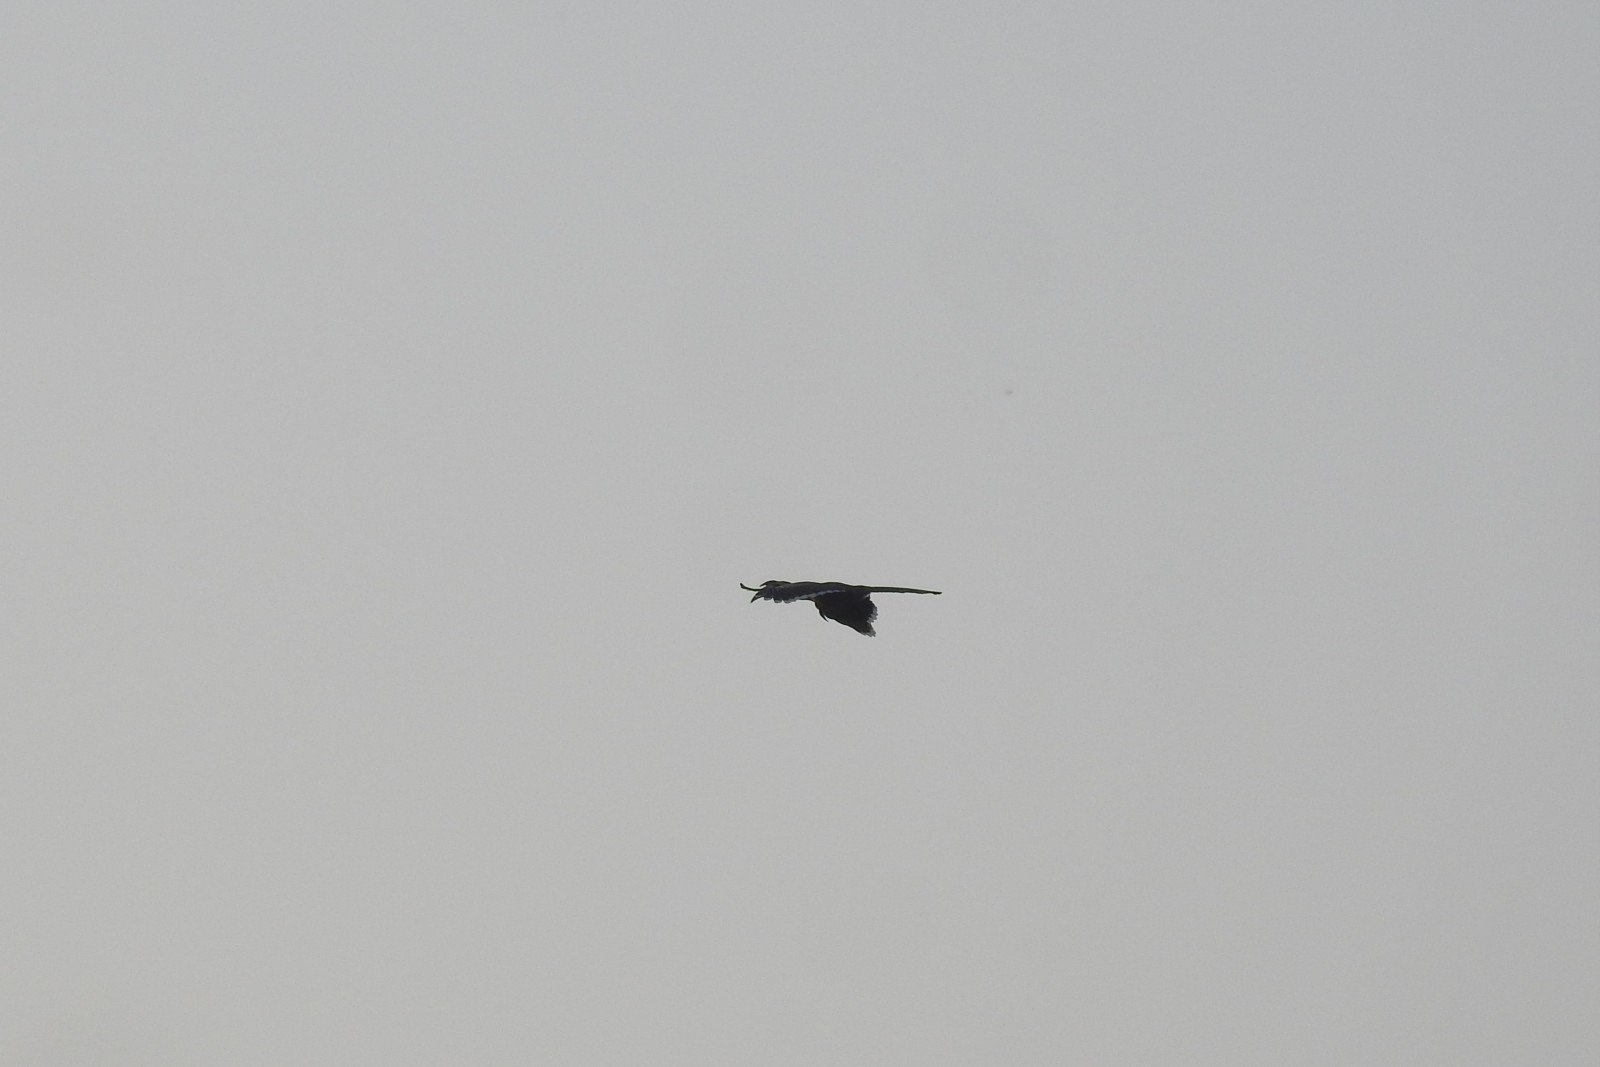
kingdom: Animalia
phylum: Chordata
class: Aves
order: Bucerotiformes
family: Bucerotidae
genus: Ocyceros
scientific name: Ocyceros birostris
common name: Indian grey hornbill
